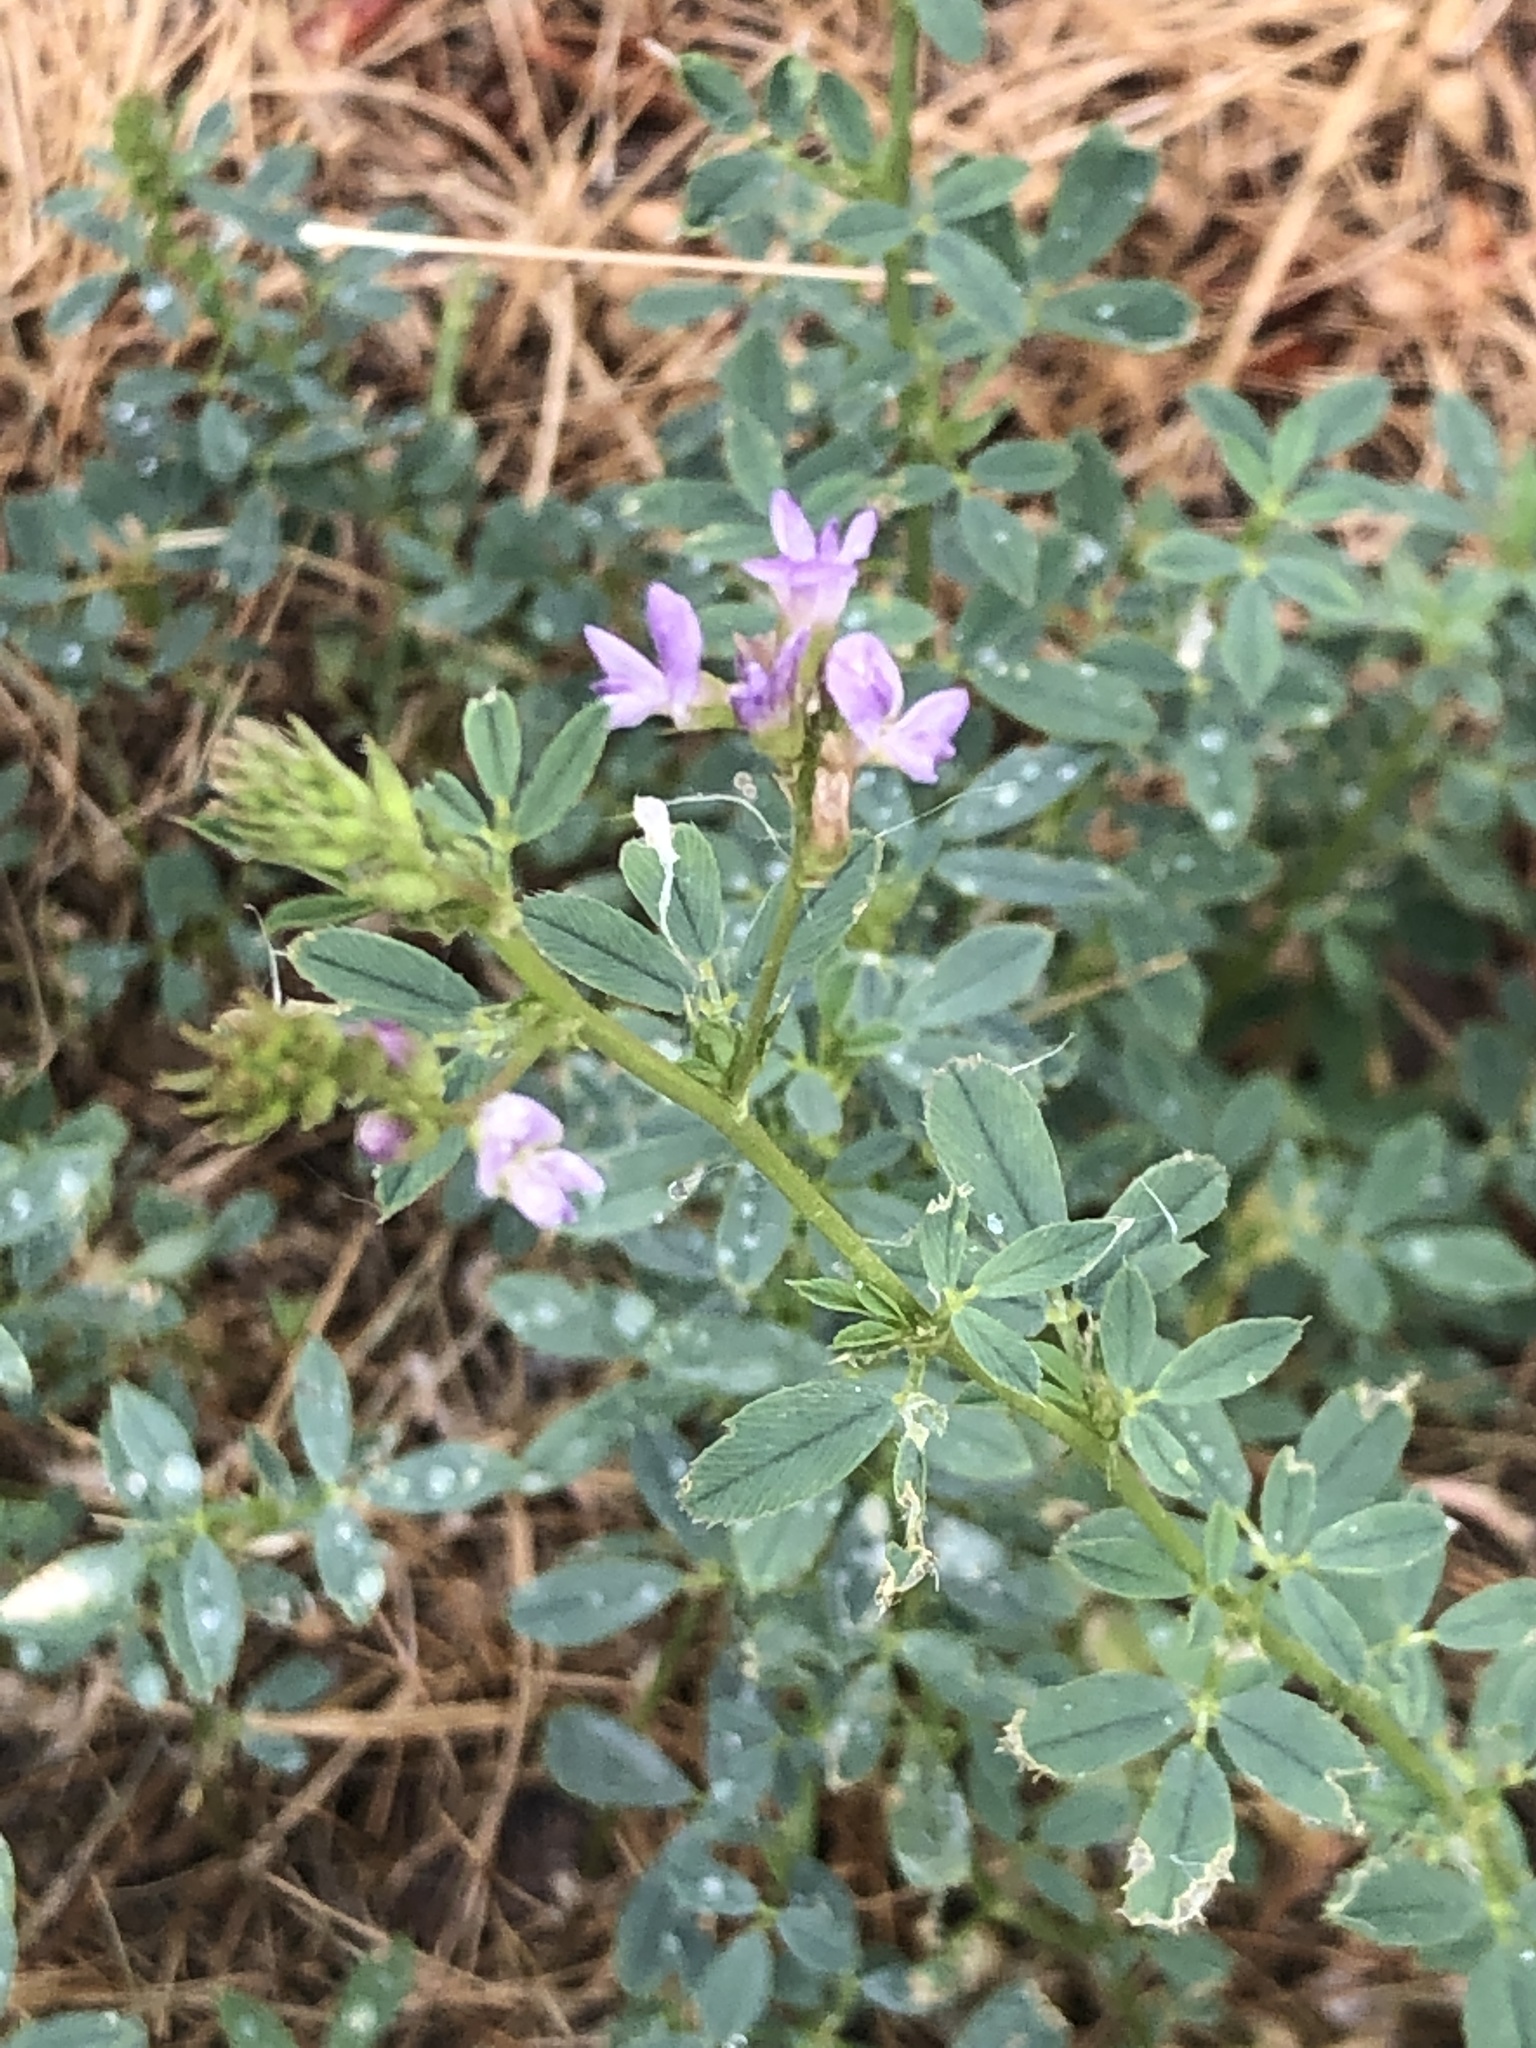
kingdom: Plantae
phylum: Tracheophyta
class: Magnoliopsida
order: Fabales
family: Fabaceae
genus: Medicago
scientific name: Medicago sativa
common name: Alfalfa
